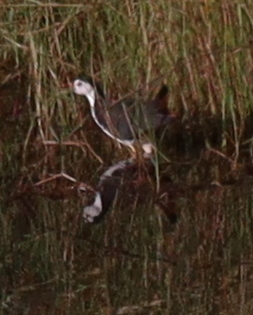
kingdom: Animalia
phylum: Chordata
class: Aves
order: Gruiformes
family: Rallidae
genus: Amaurornis
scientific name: Amaurornis phoenicurus
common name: White-breasted waterhen
